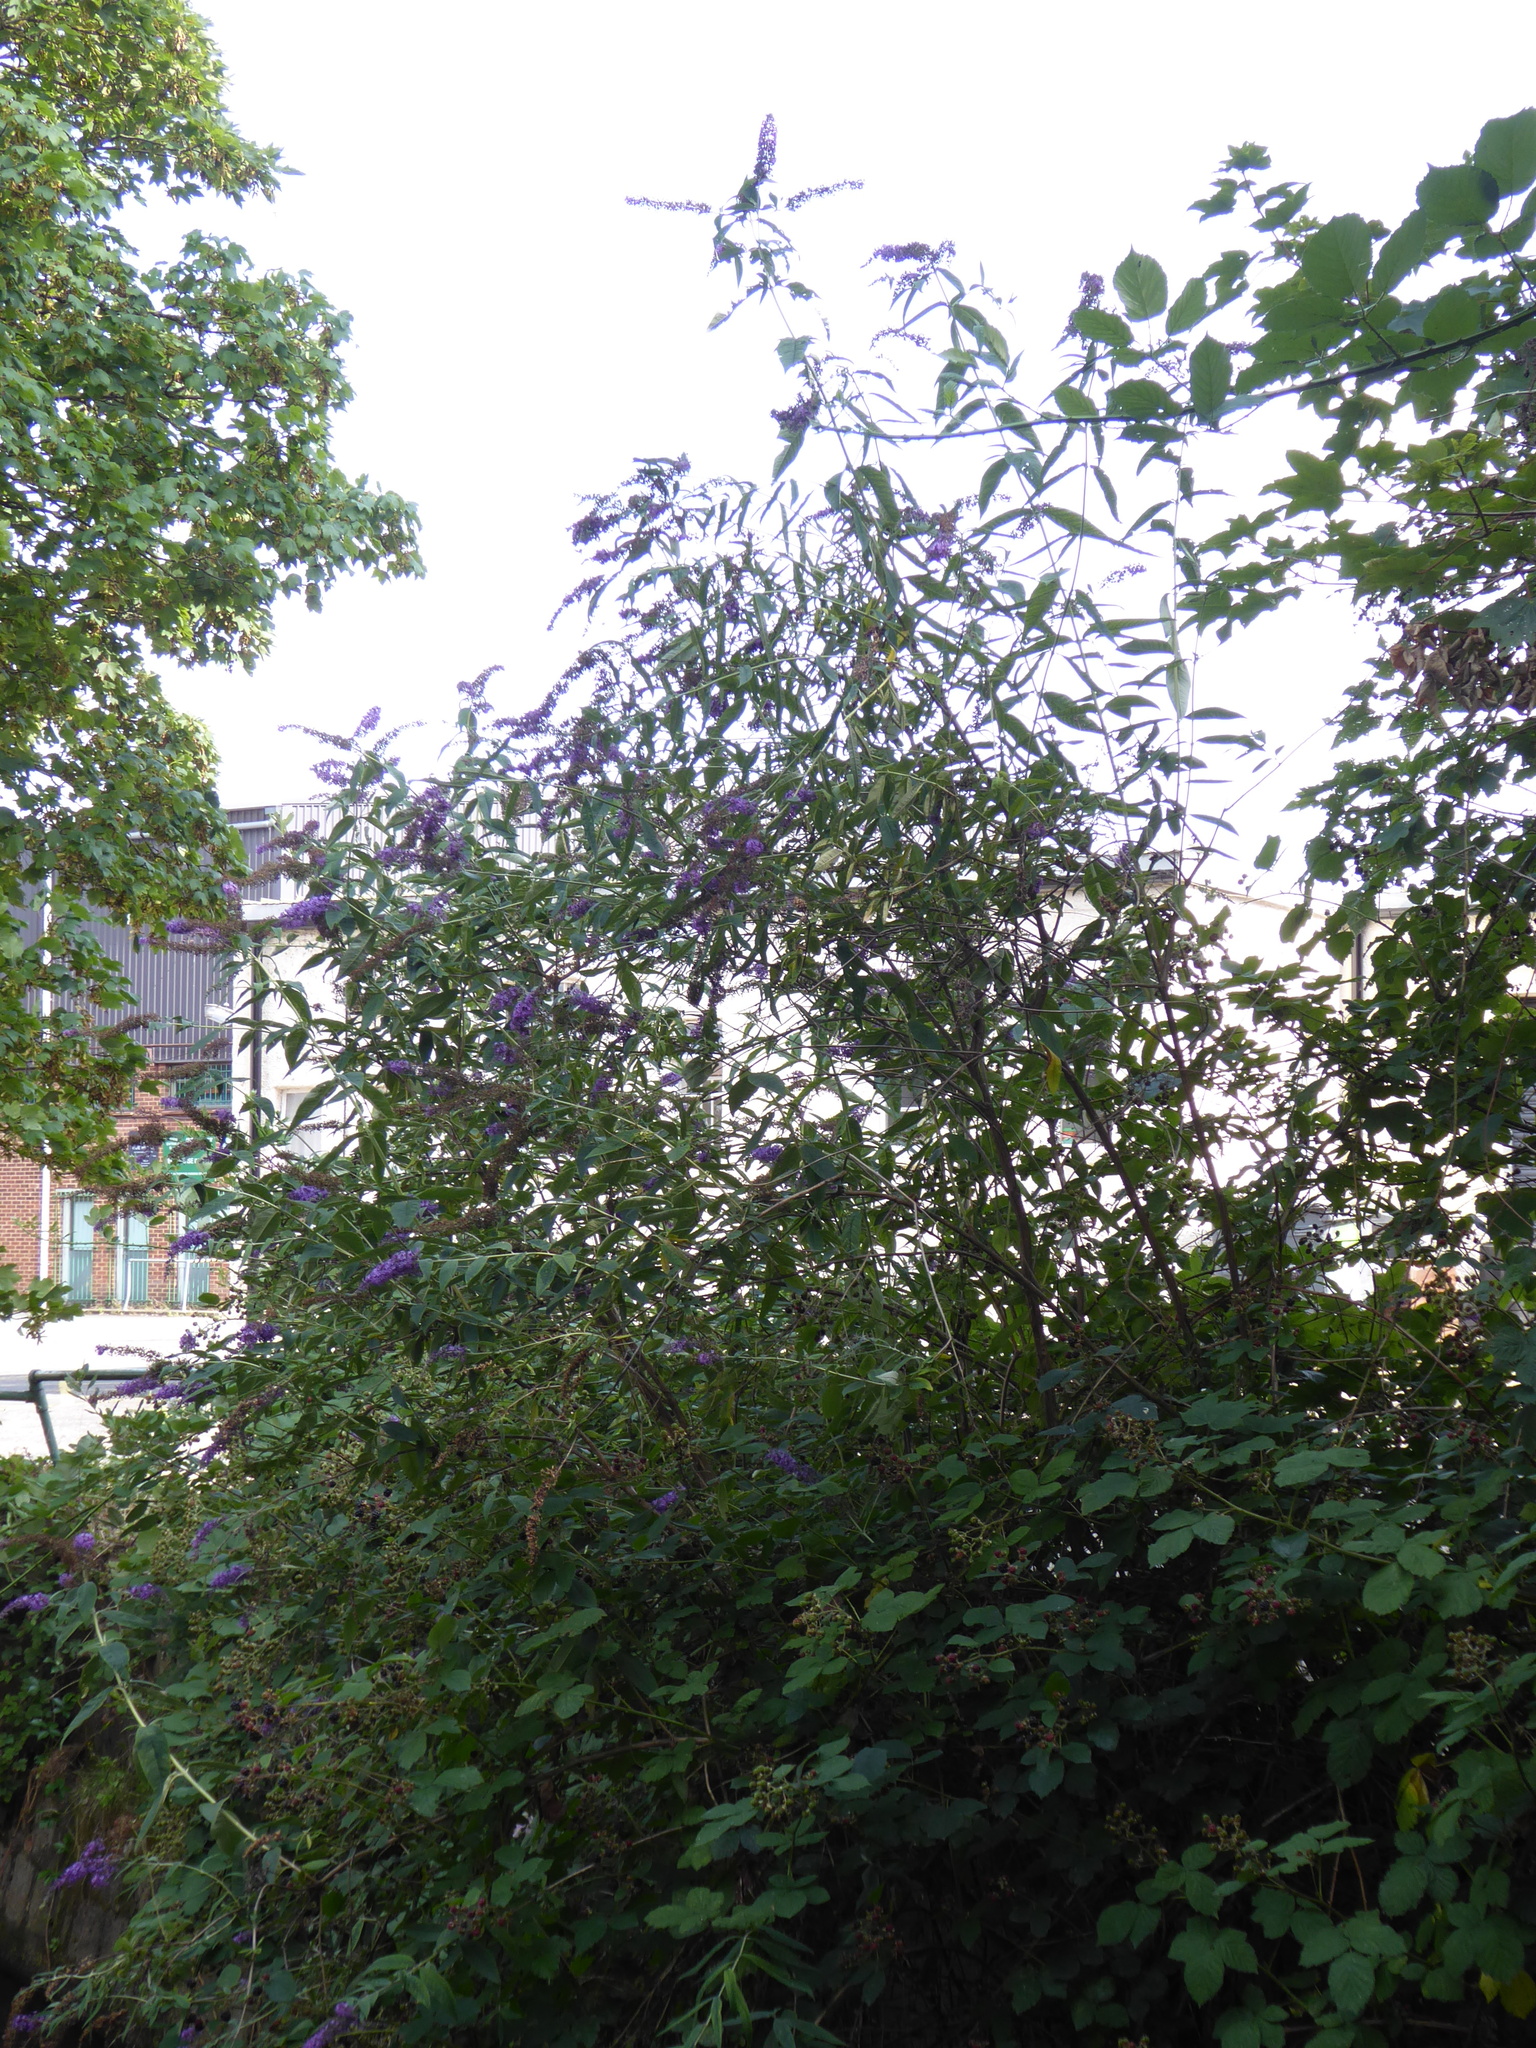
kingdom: Plantae
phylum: Tracheophyta
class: Magnoliopsida
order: Lamiales
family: Scrophulariaceae
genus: Buddleja
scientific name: Buddleja davidii
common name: Butterfly-bush
